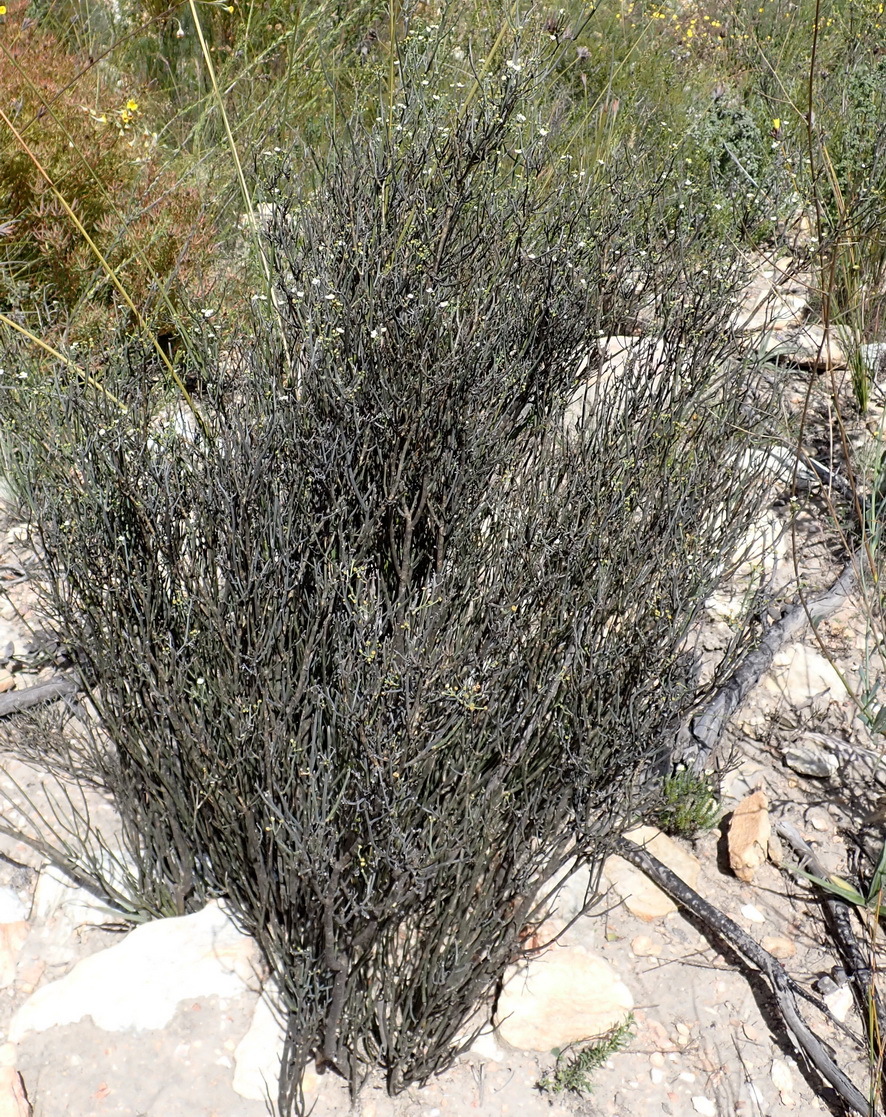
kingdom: Plantae
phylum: Tracheophyta
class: Magnoliopsida
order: Solanales
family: Montiniaceae
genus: Montinia
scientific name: Montinia caryophyllacea
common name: Wild clove-bush
